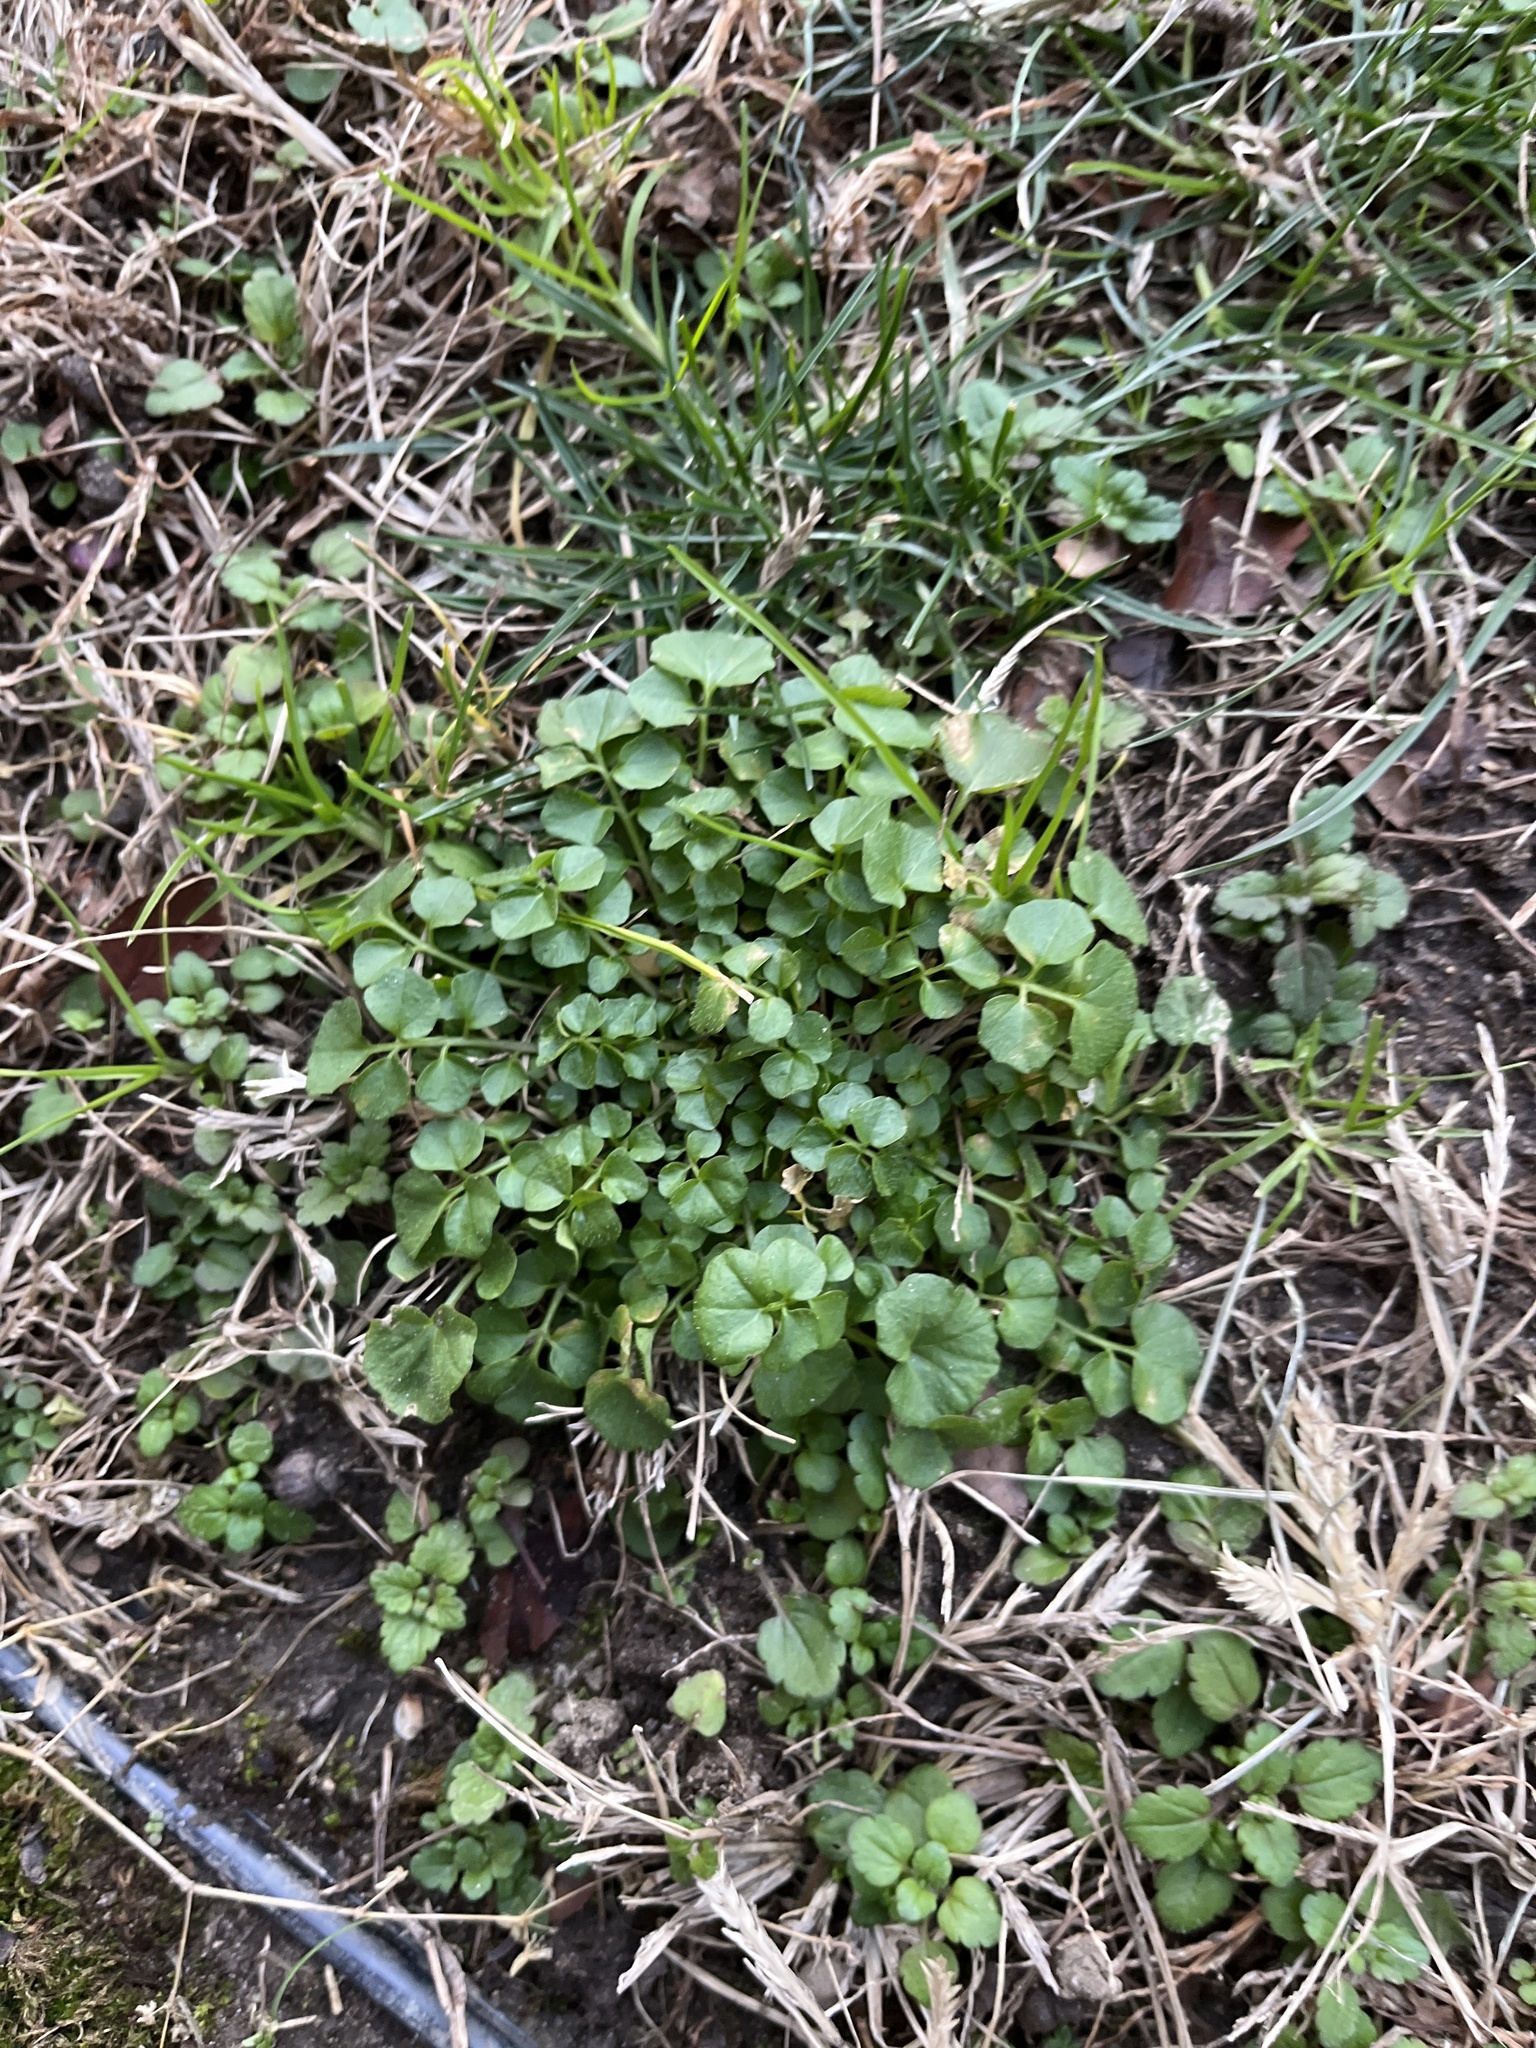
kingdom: Plantae
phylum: Tracheophyta
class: Magnoliopsida
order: Brassicales
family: Brassicaceae
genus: Cardamine
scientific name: Cardamine hirsuta
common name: Hairy bittercress
